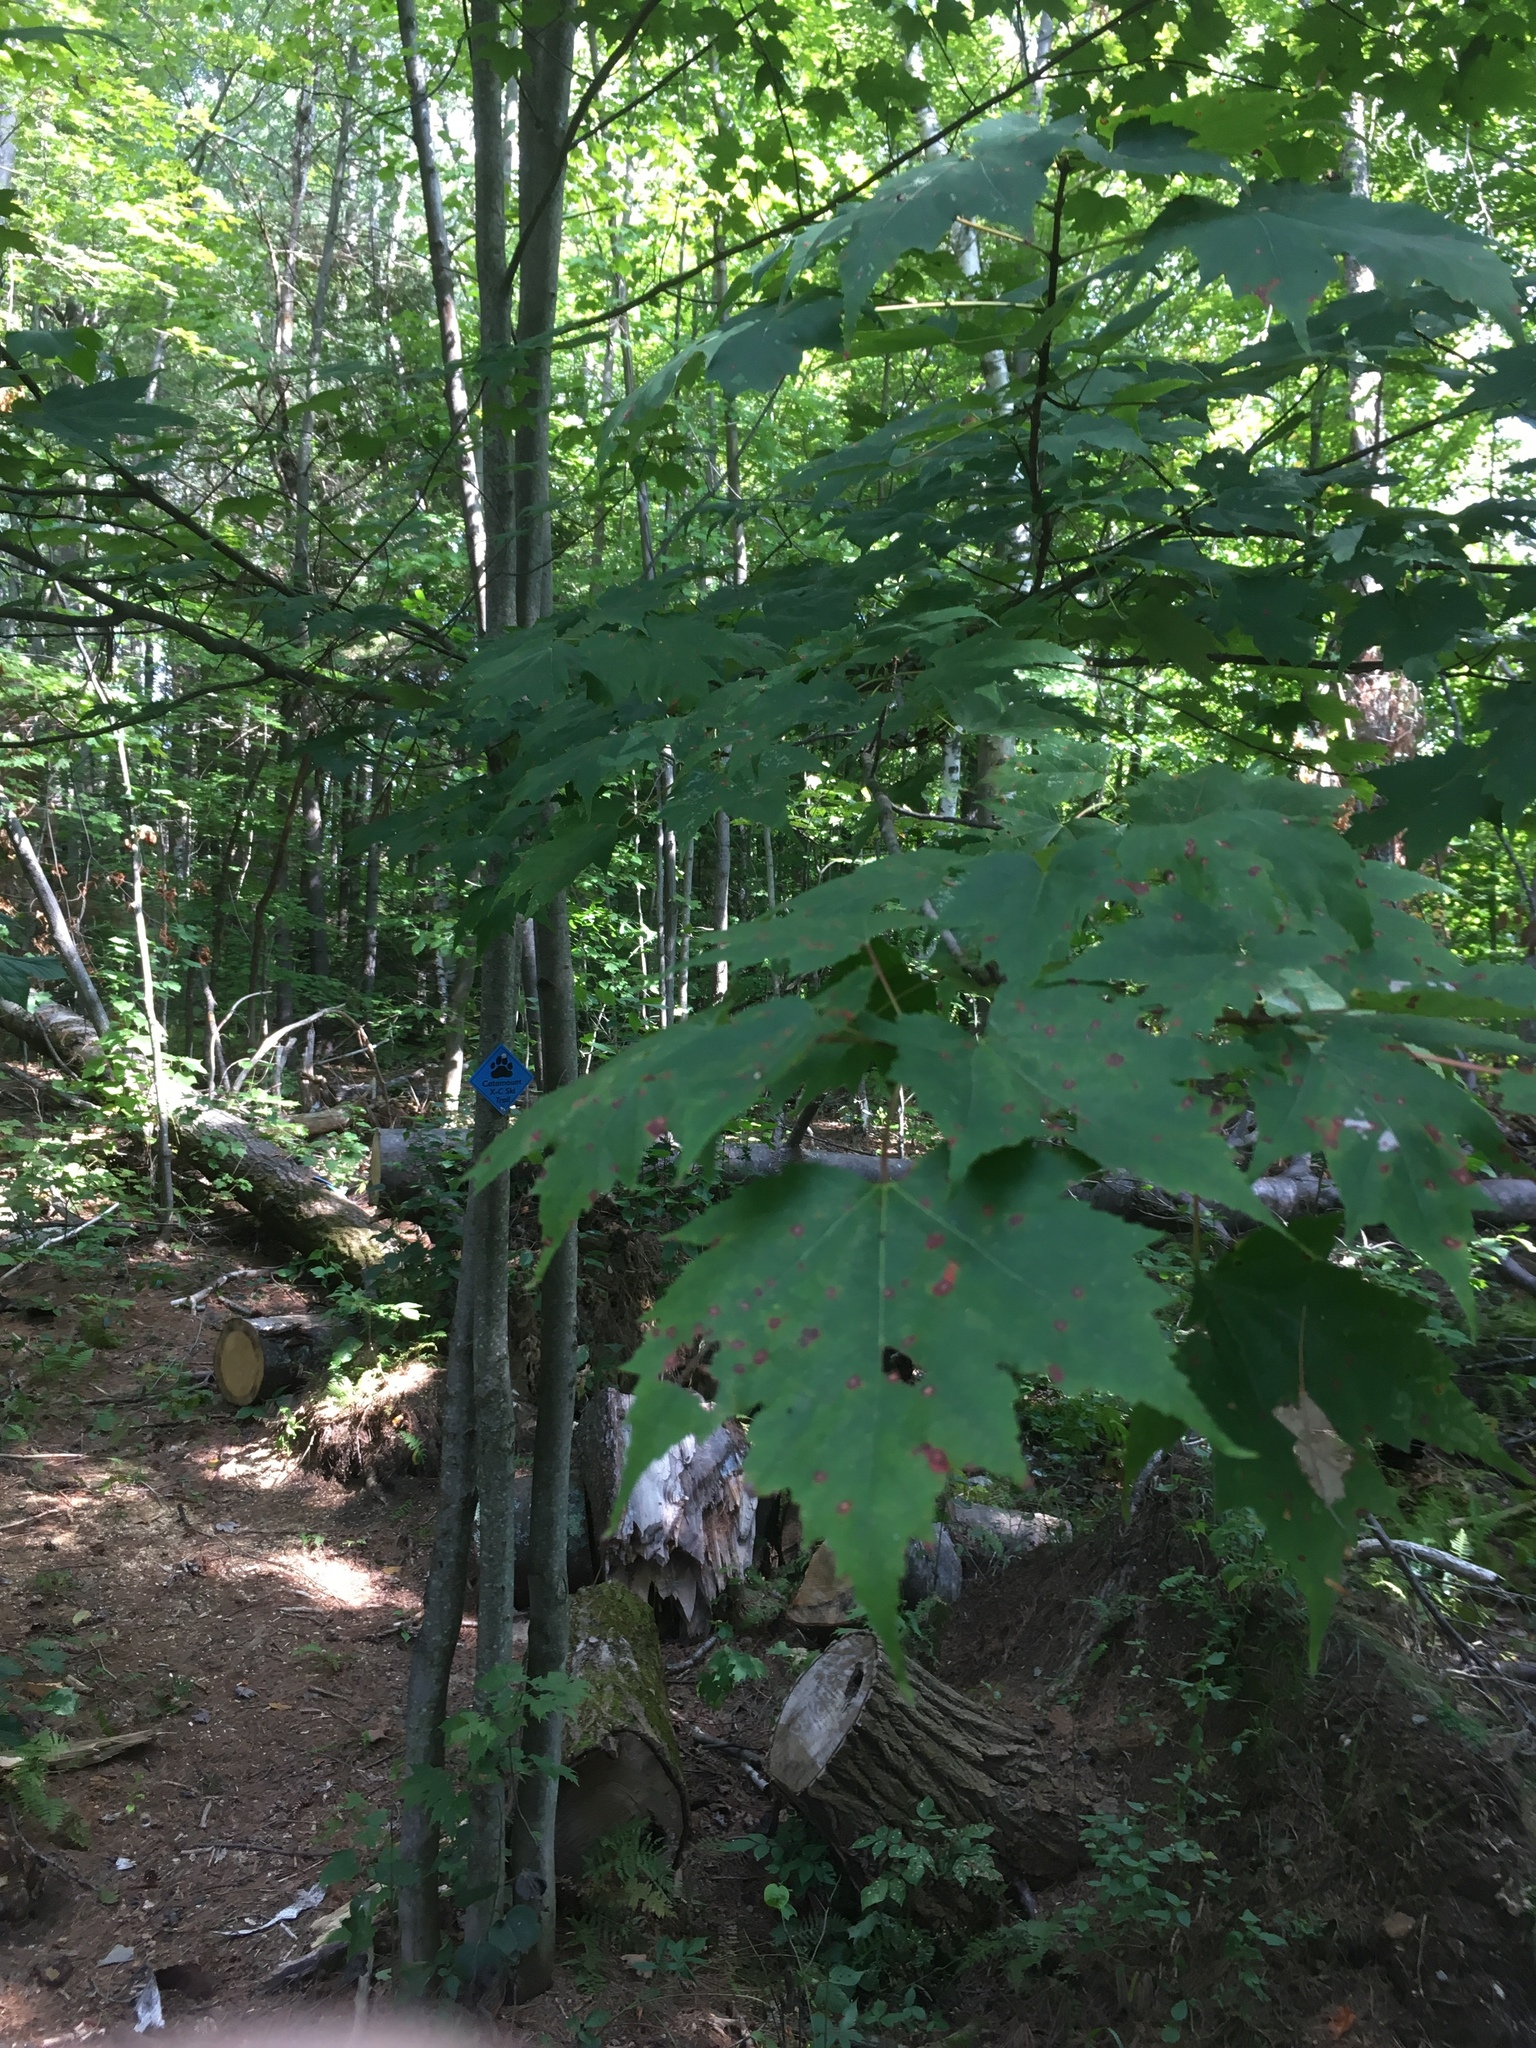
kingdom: Plantae
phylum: Tracheophyta
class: Magnoliopsida
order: Sapindales
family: Sapindaceae
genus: Acer
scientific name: Acer rubrum
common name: Red maple
